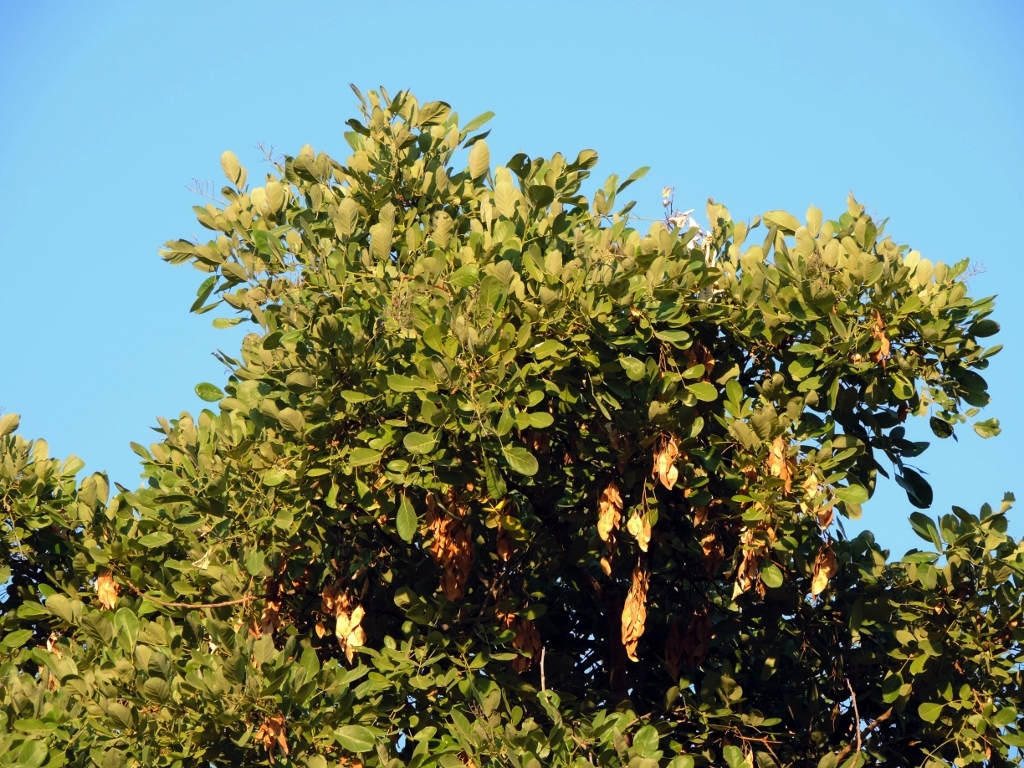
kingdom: Plantae
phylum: Tracheophyta
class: Magnoliopsida
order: Fabales
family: Fabaceae
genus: Philenoptera
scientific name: Philenoptera violacea
